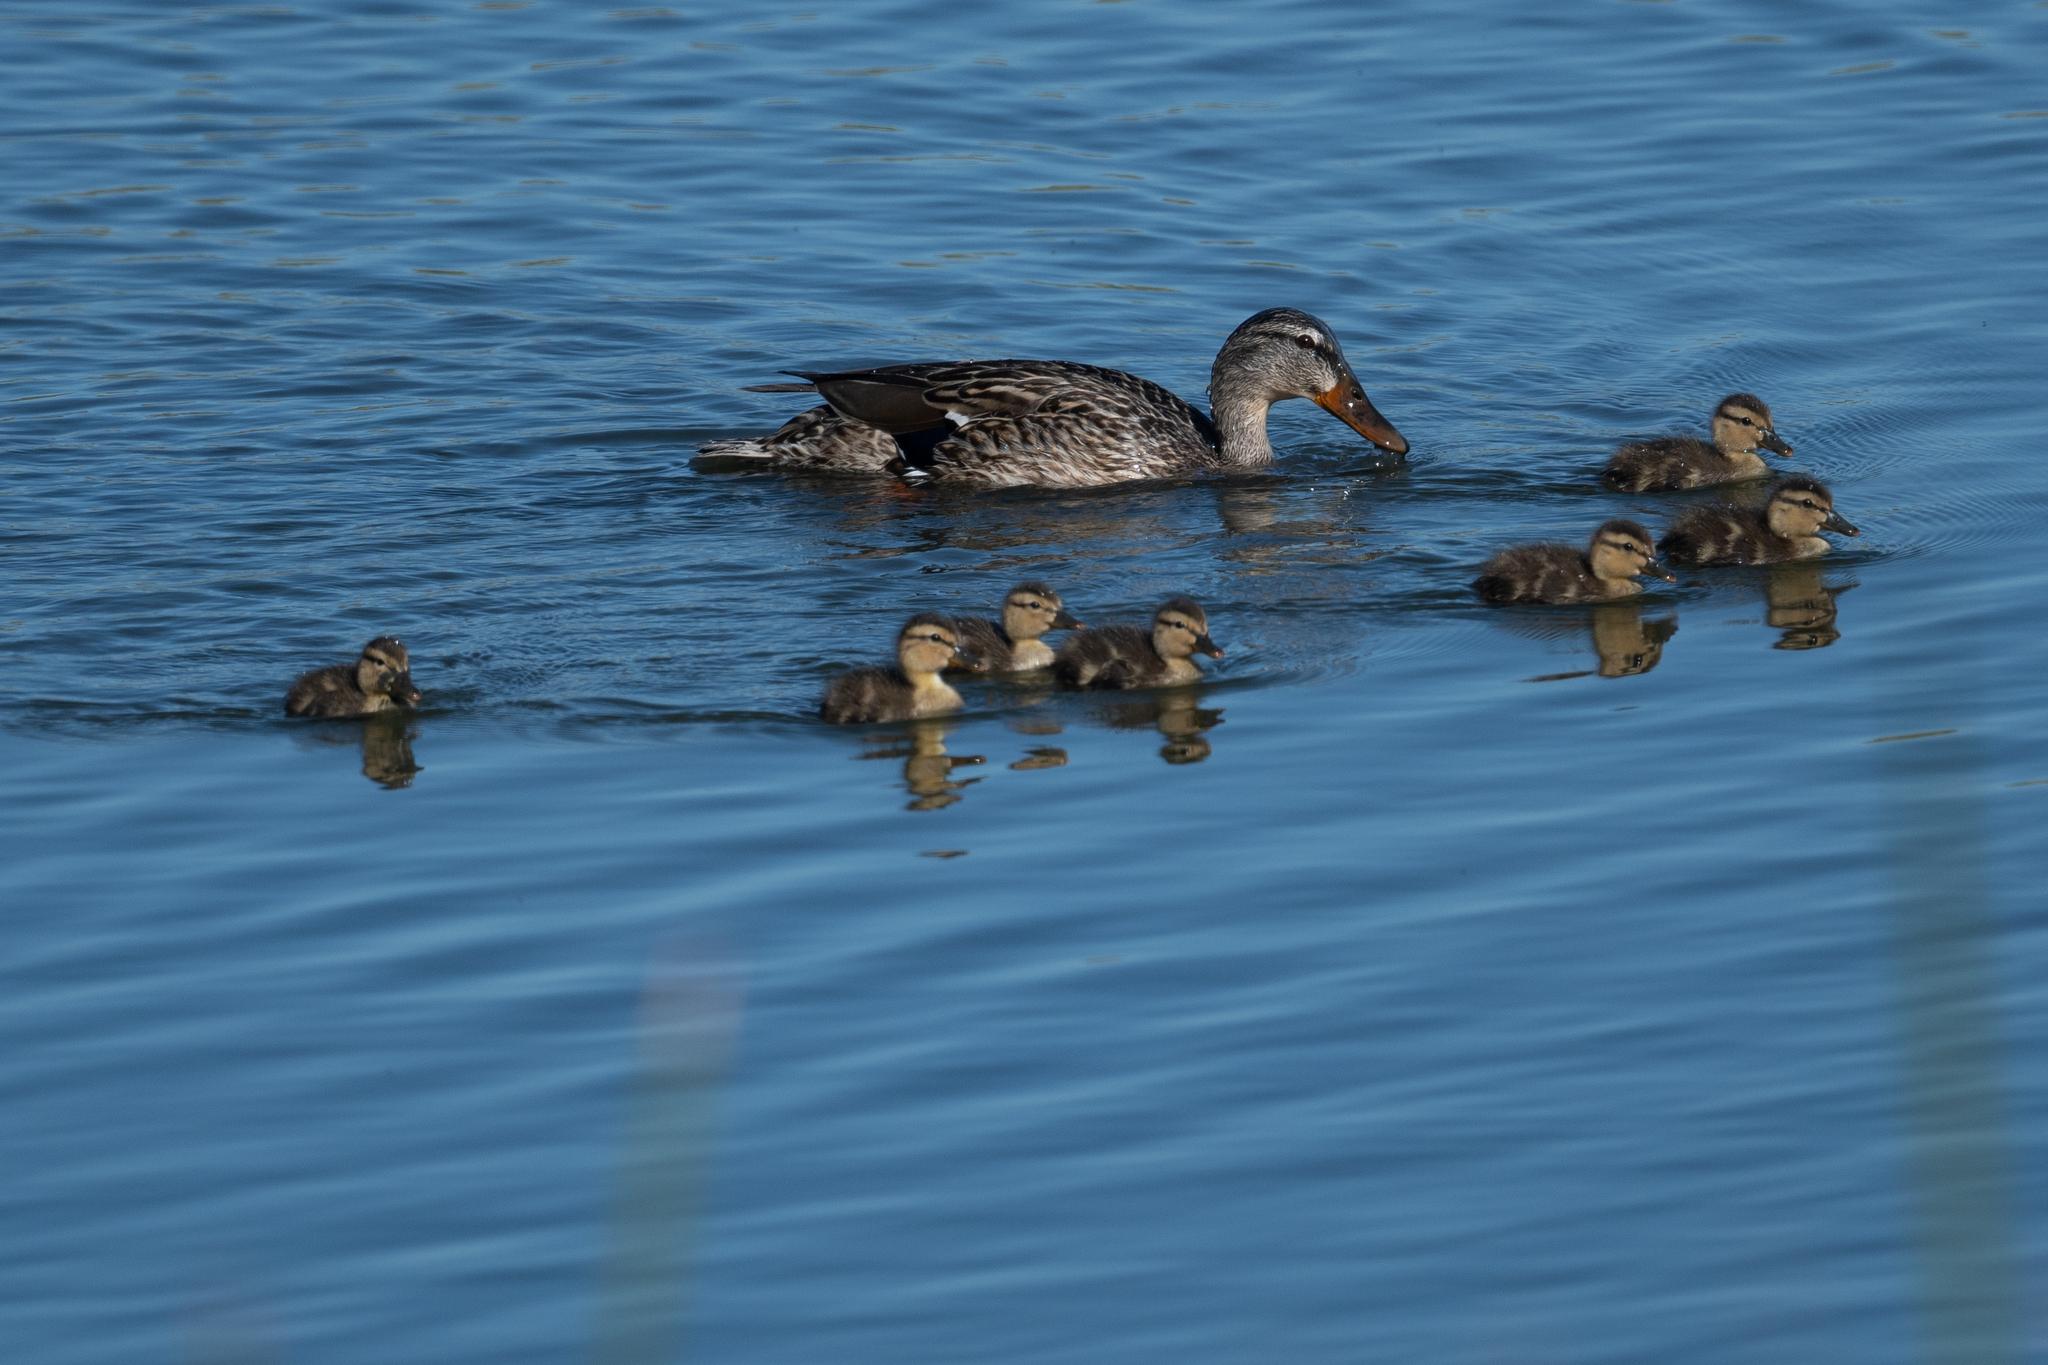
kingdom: Animalia
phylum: Chordata
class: Aves
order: Anseriformes
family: Anatidae
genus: Anas
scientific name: Anas platyrhynchos
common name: Mallard
